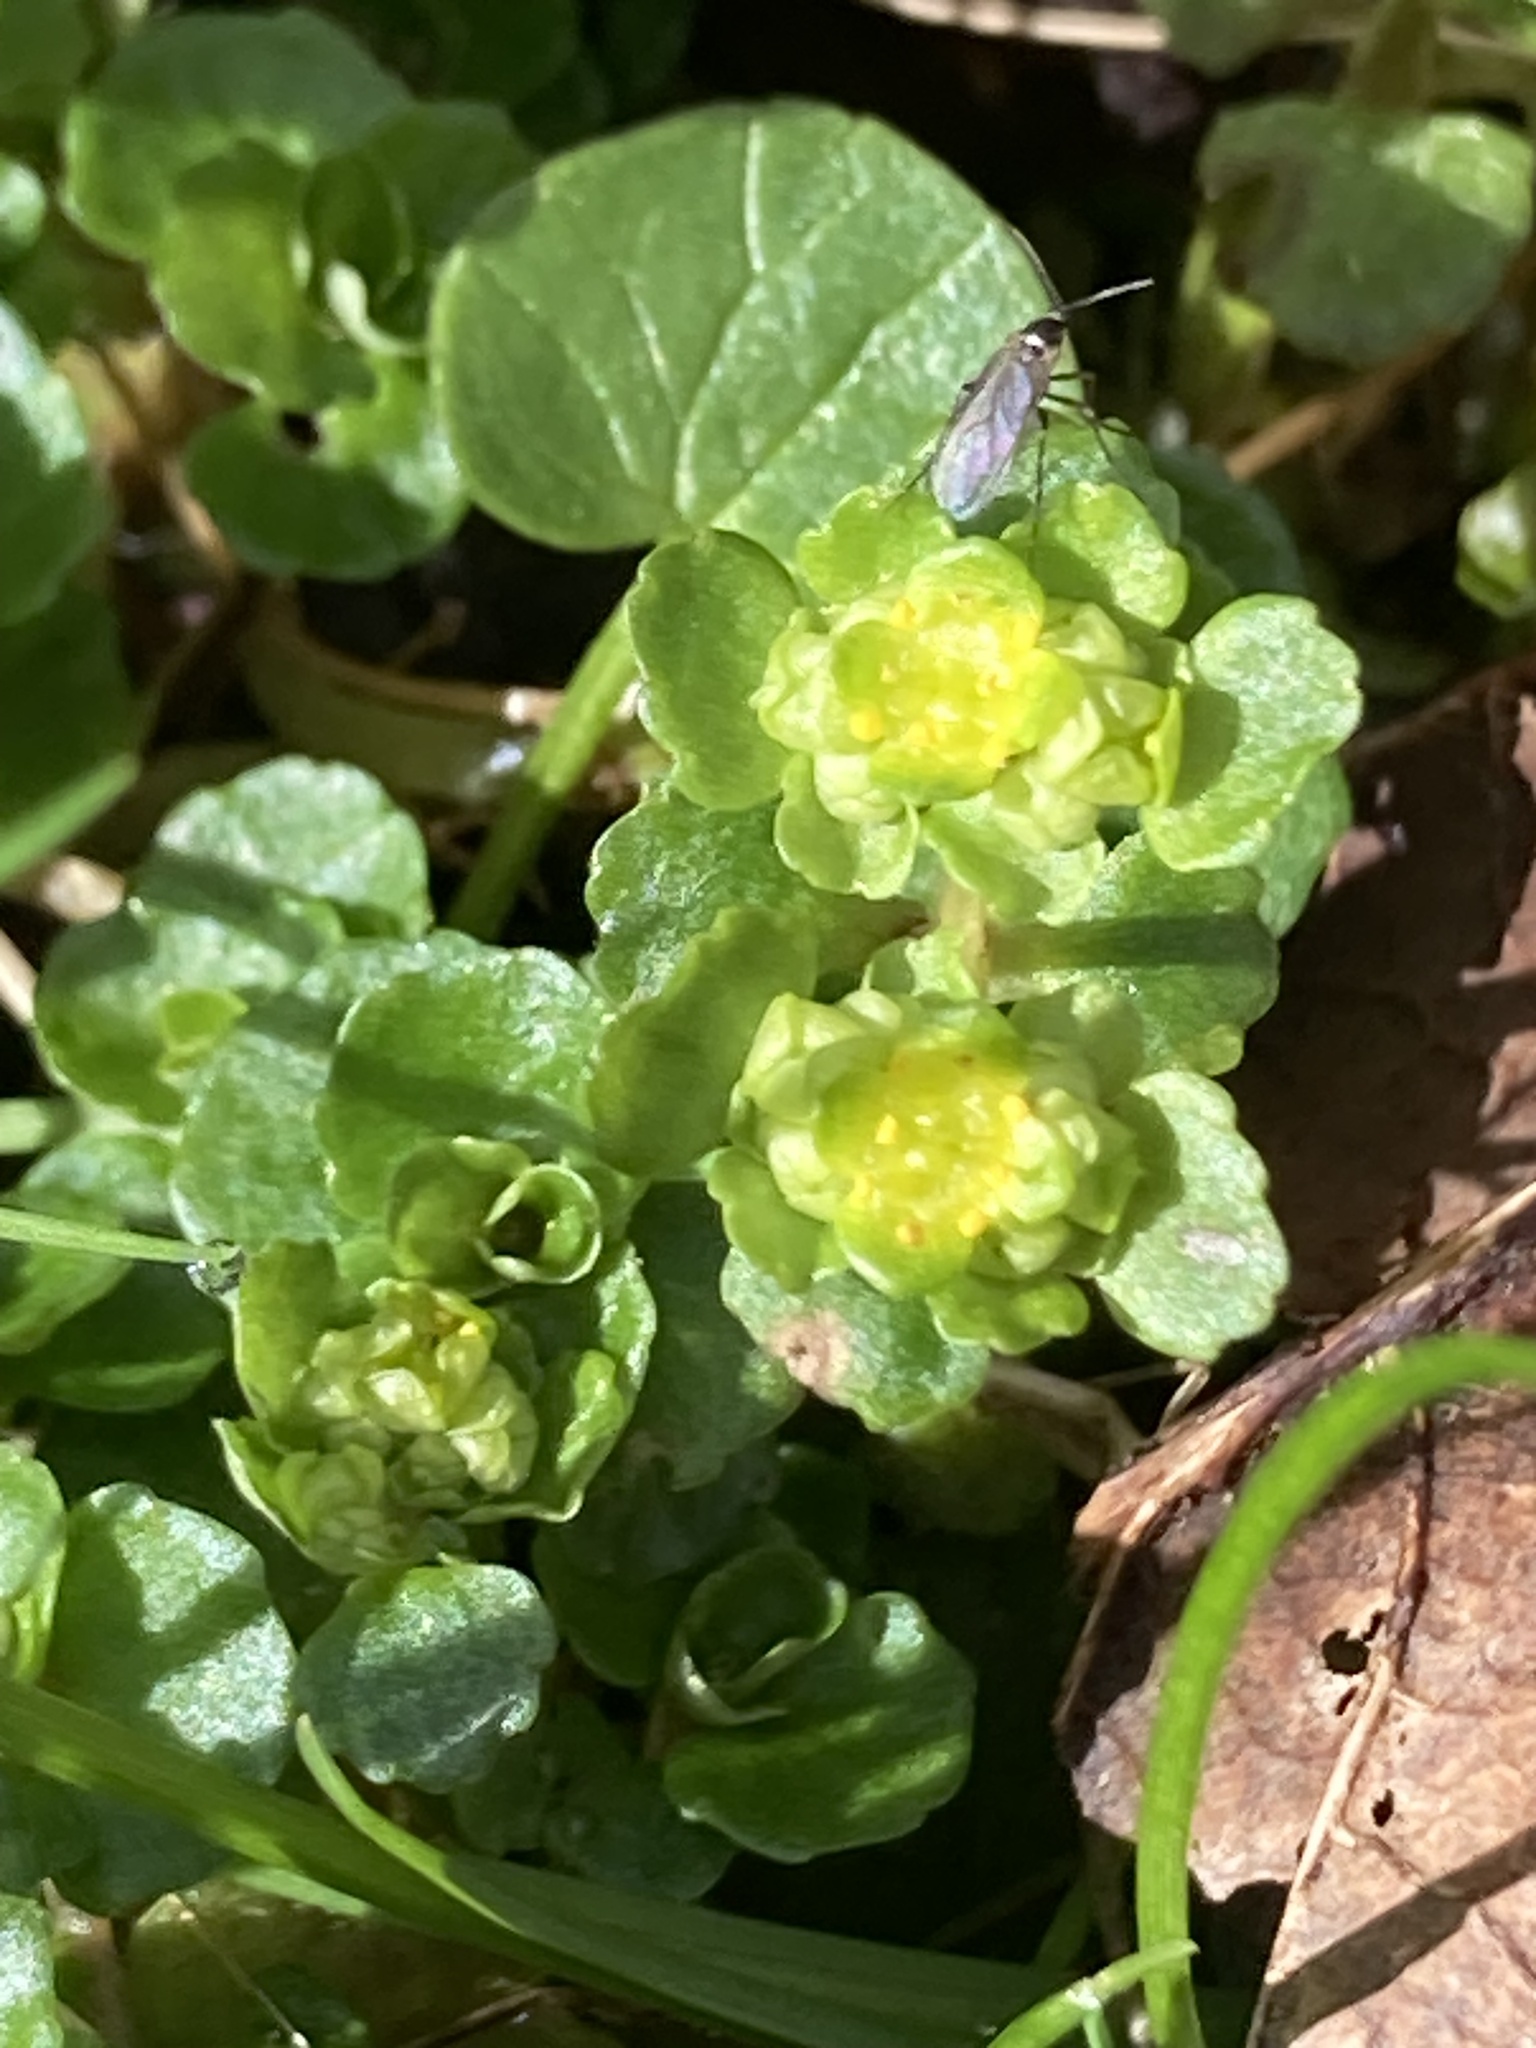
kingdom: Plantae
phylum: Tracheophyta
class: Magnoliopsida
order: Saxifragales
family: Saxifragaceae
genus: Chrysosplenium
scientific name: Chrysosplenium oppositifolium
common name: Opposite-leaved golden-saxifrage
